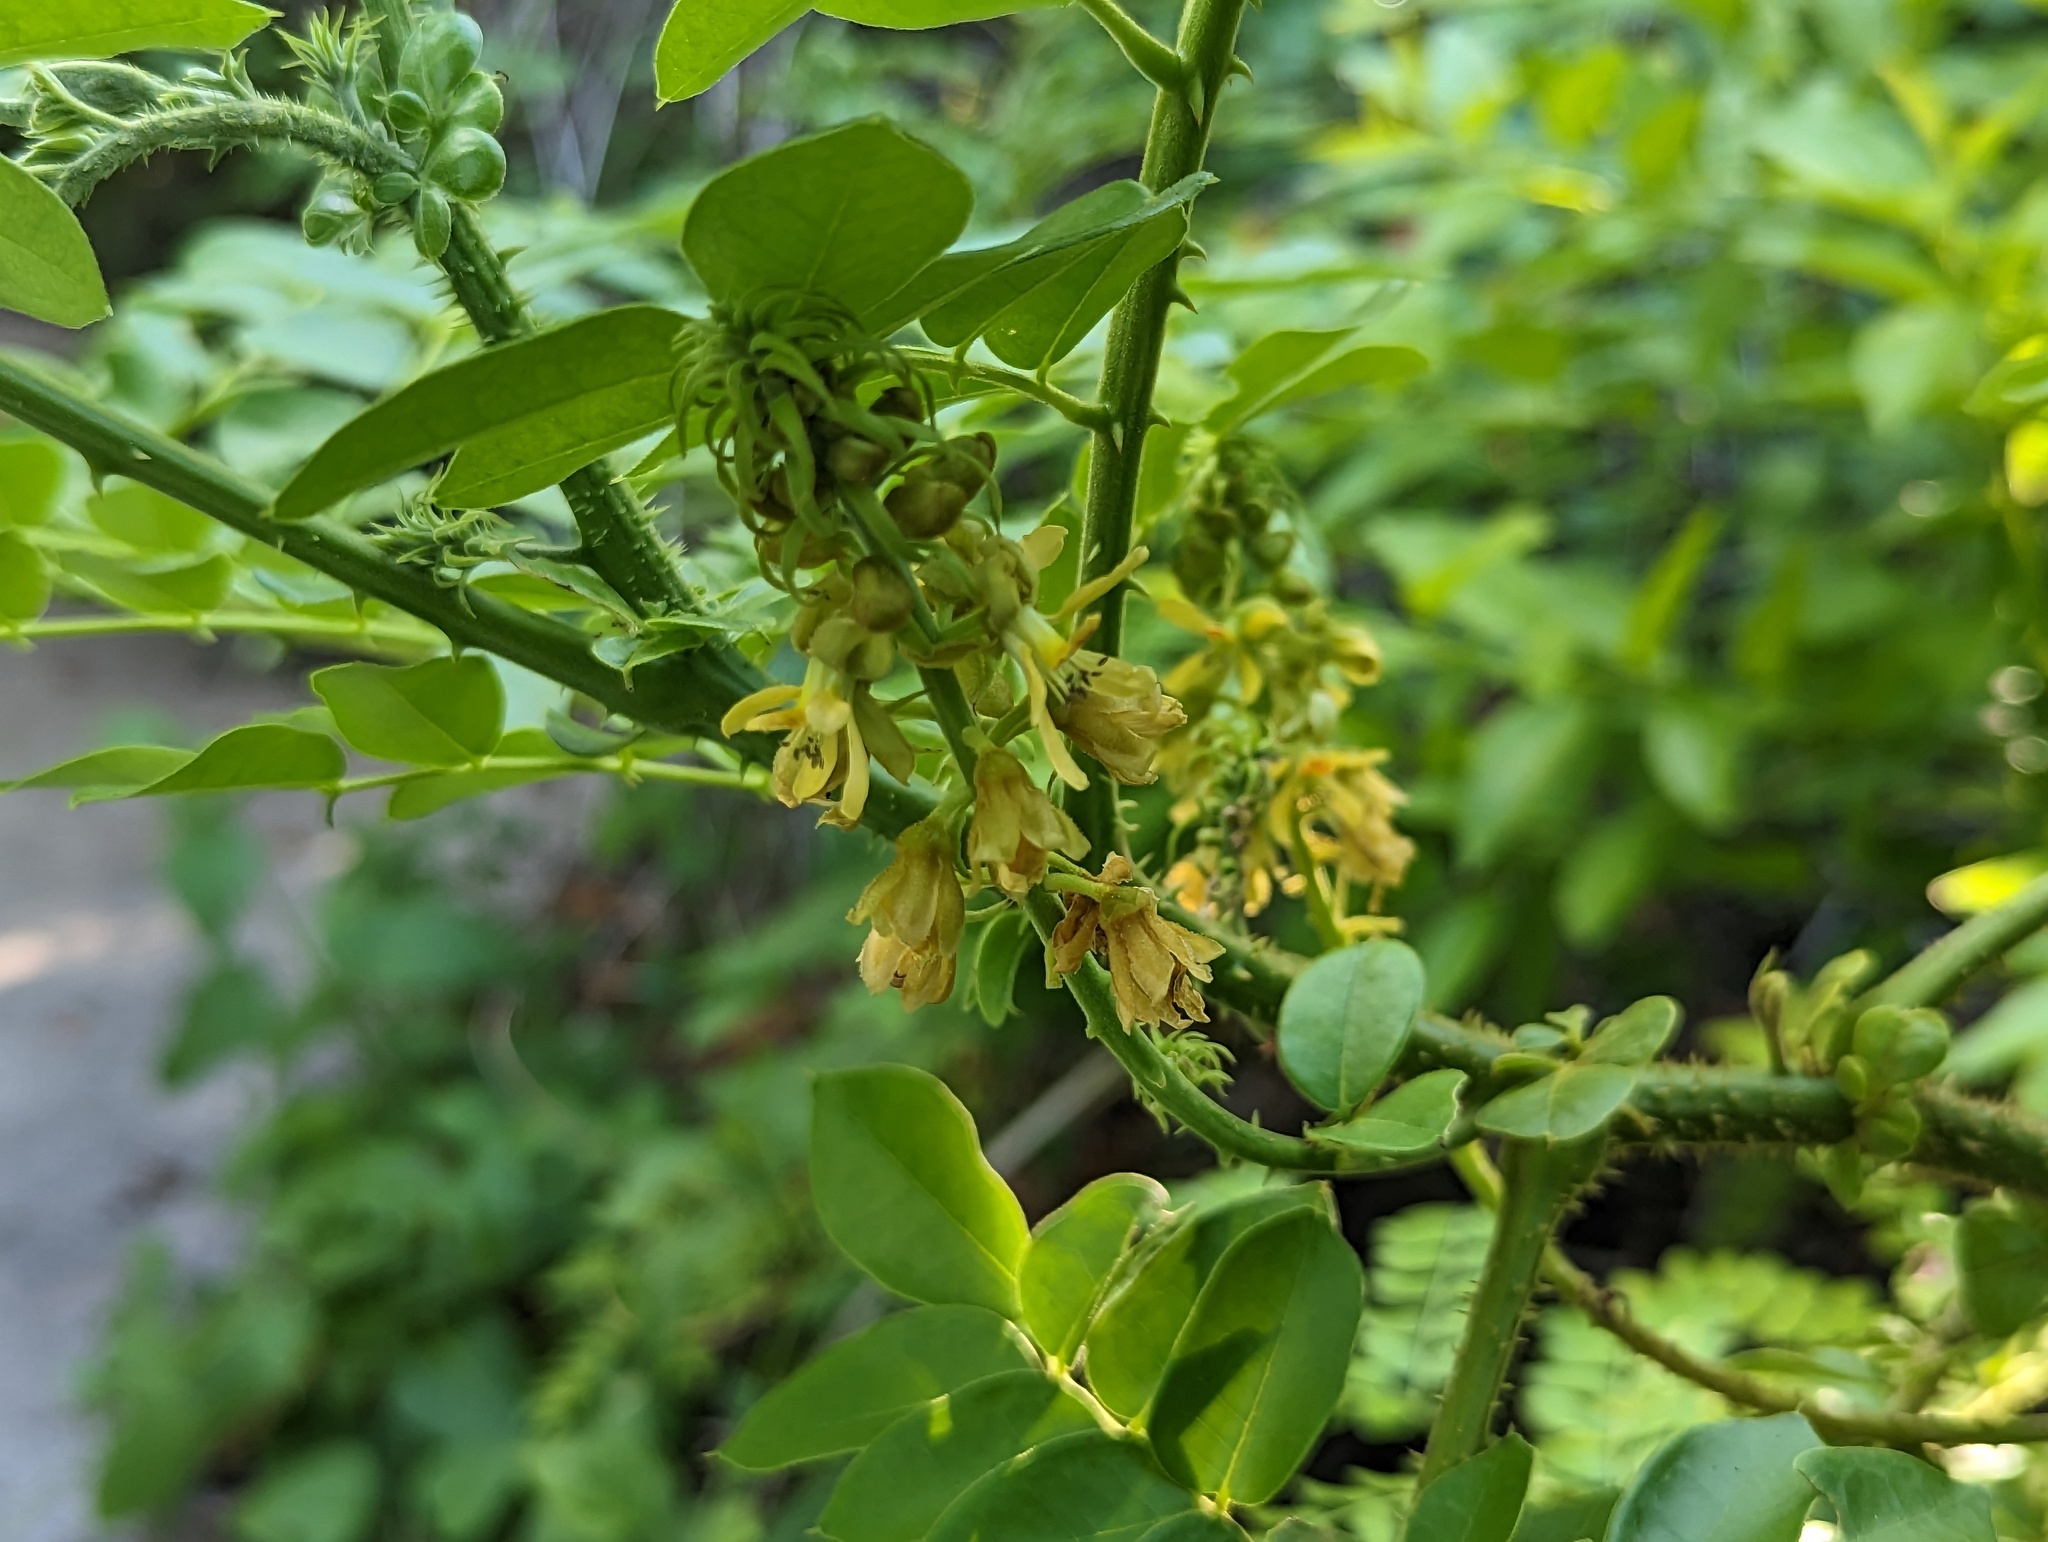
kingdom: Plantae
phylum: Tracheophyta
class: Magnoliopsida
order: Fabales
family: Fabaceae
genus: Guilandina
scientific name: Guilandina bonduc
